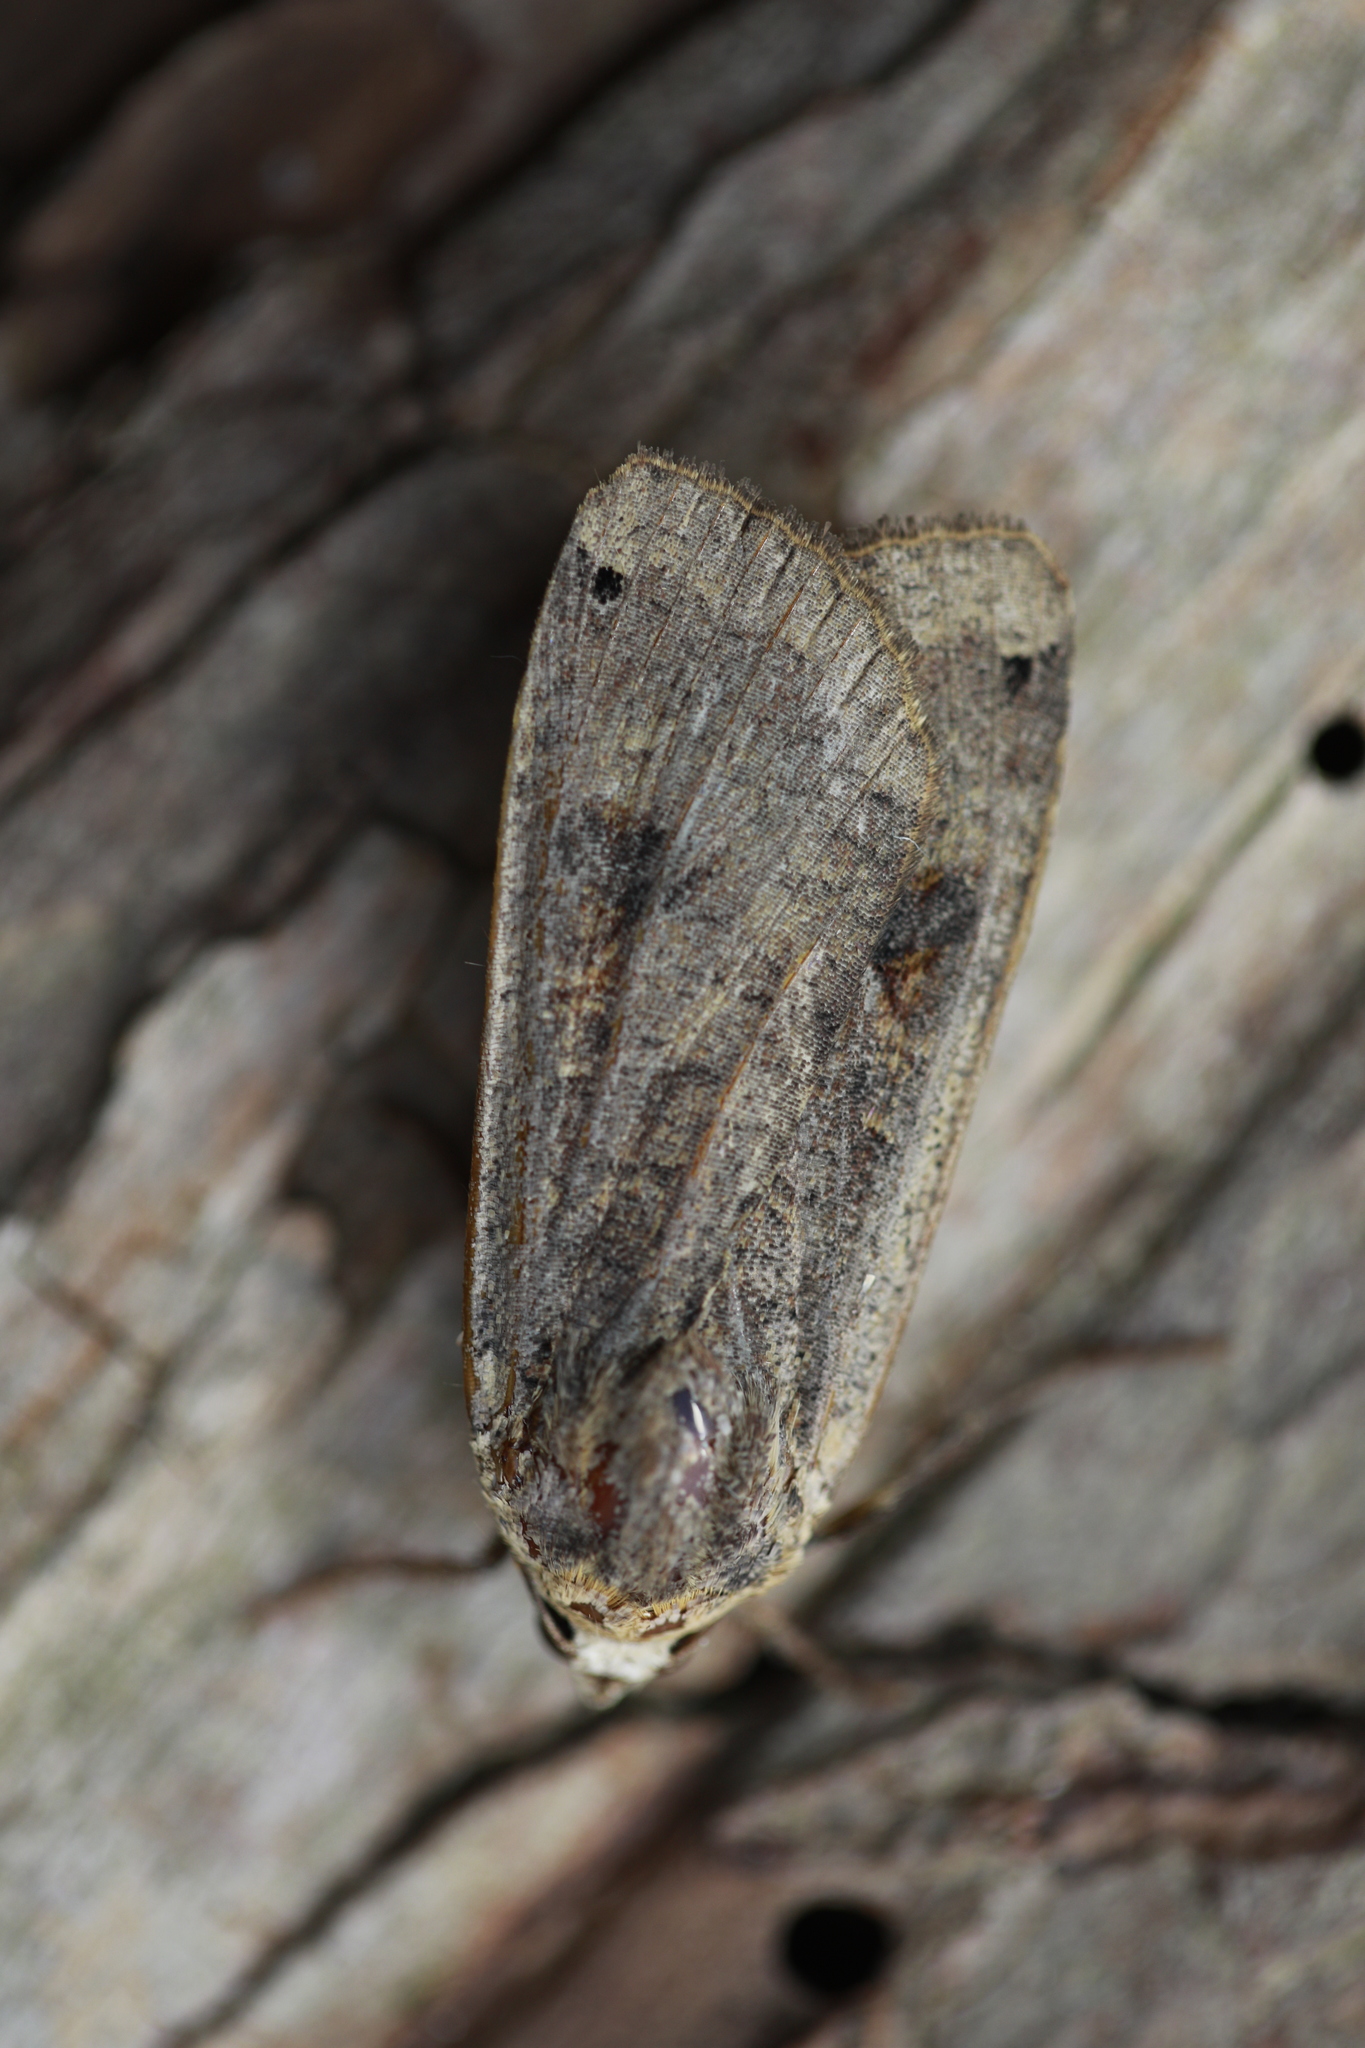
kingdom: Animalia
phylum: Arthropoda
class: Insecta
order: Lepidoptera
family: Noctuidae
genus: Noctua
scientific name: Noctua pronuba
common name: Large yellow underwing
